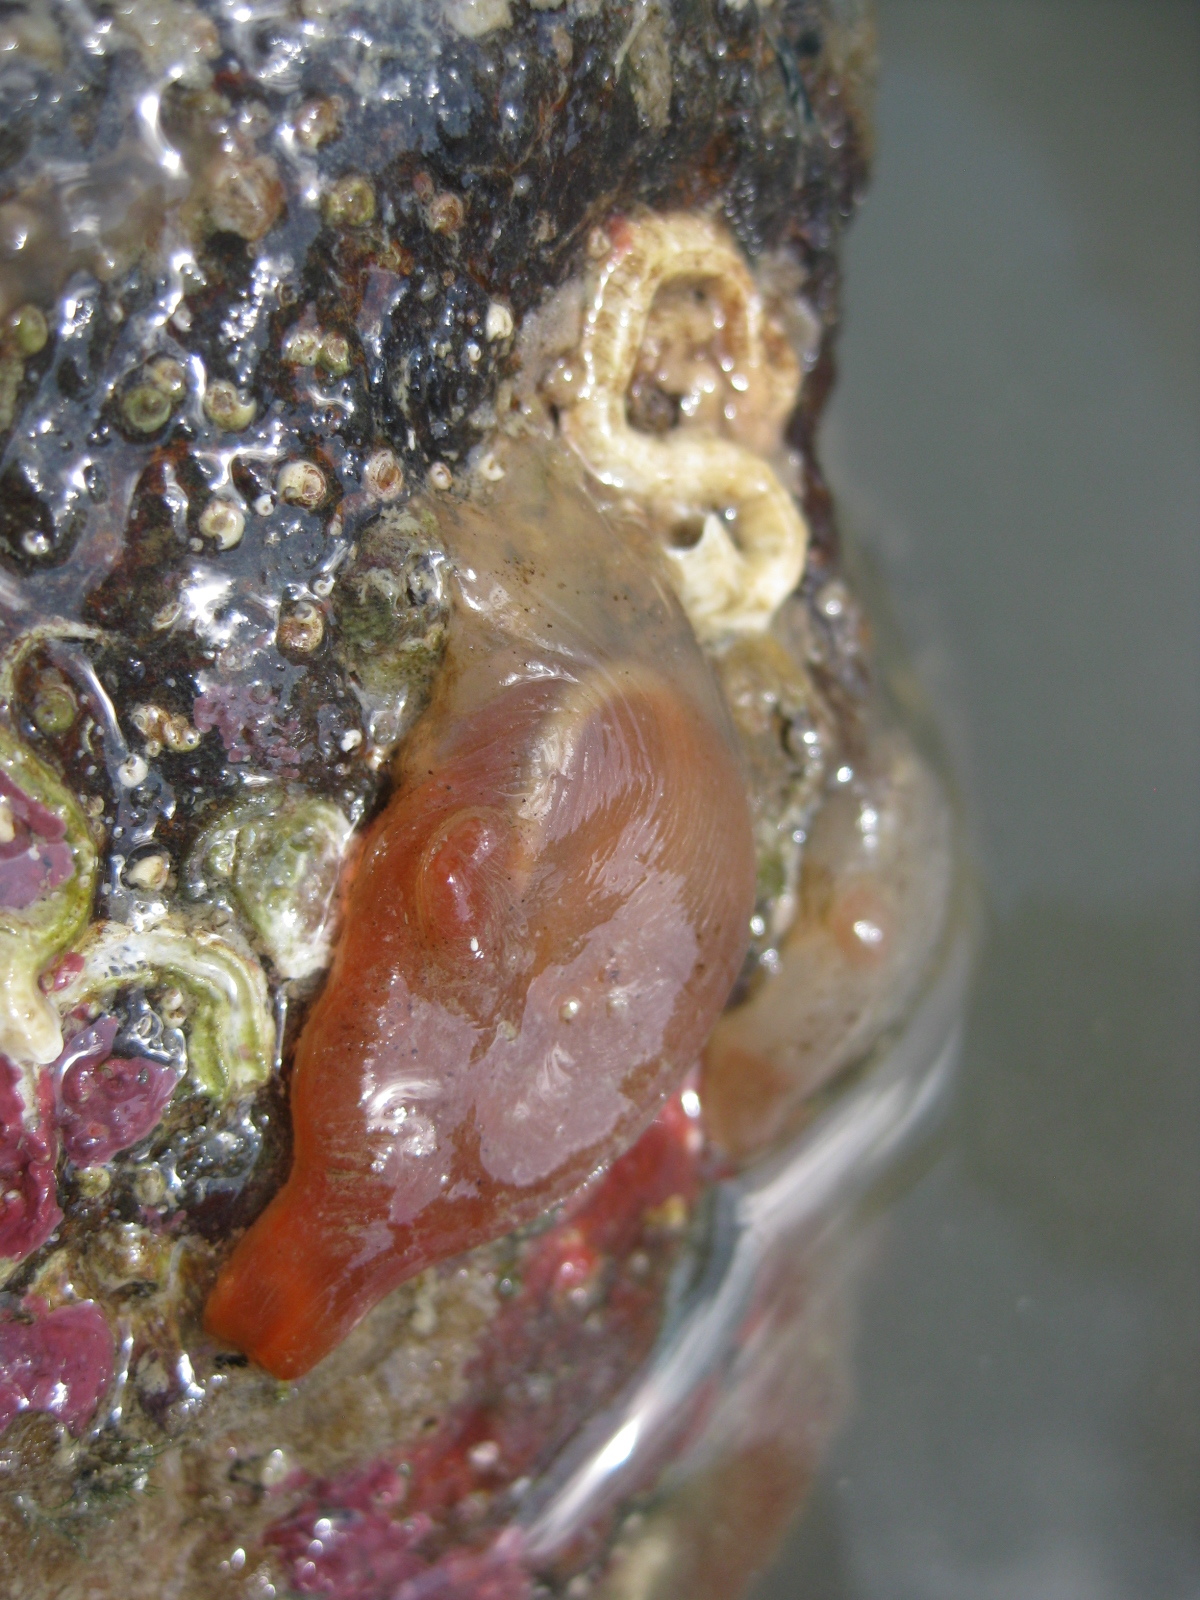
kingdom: Animalia
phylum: Chordata
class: Ascidiacea
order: Phlebobranchia
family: Corellidae
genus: Corella
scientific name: Corella eumyota
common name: Orange-tipped sea squirt
